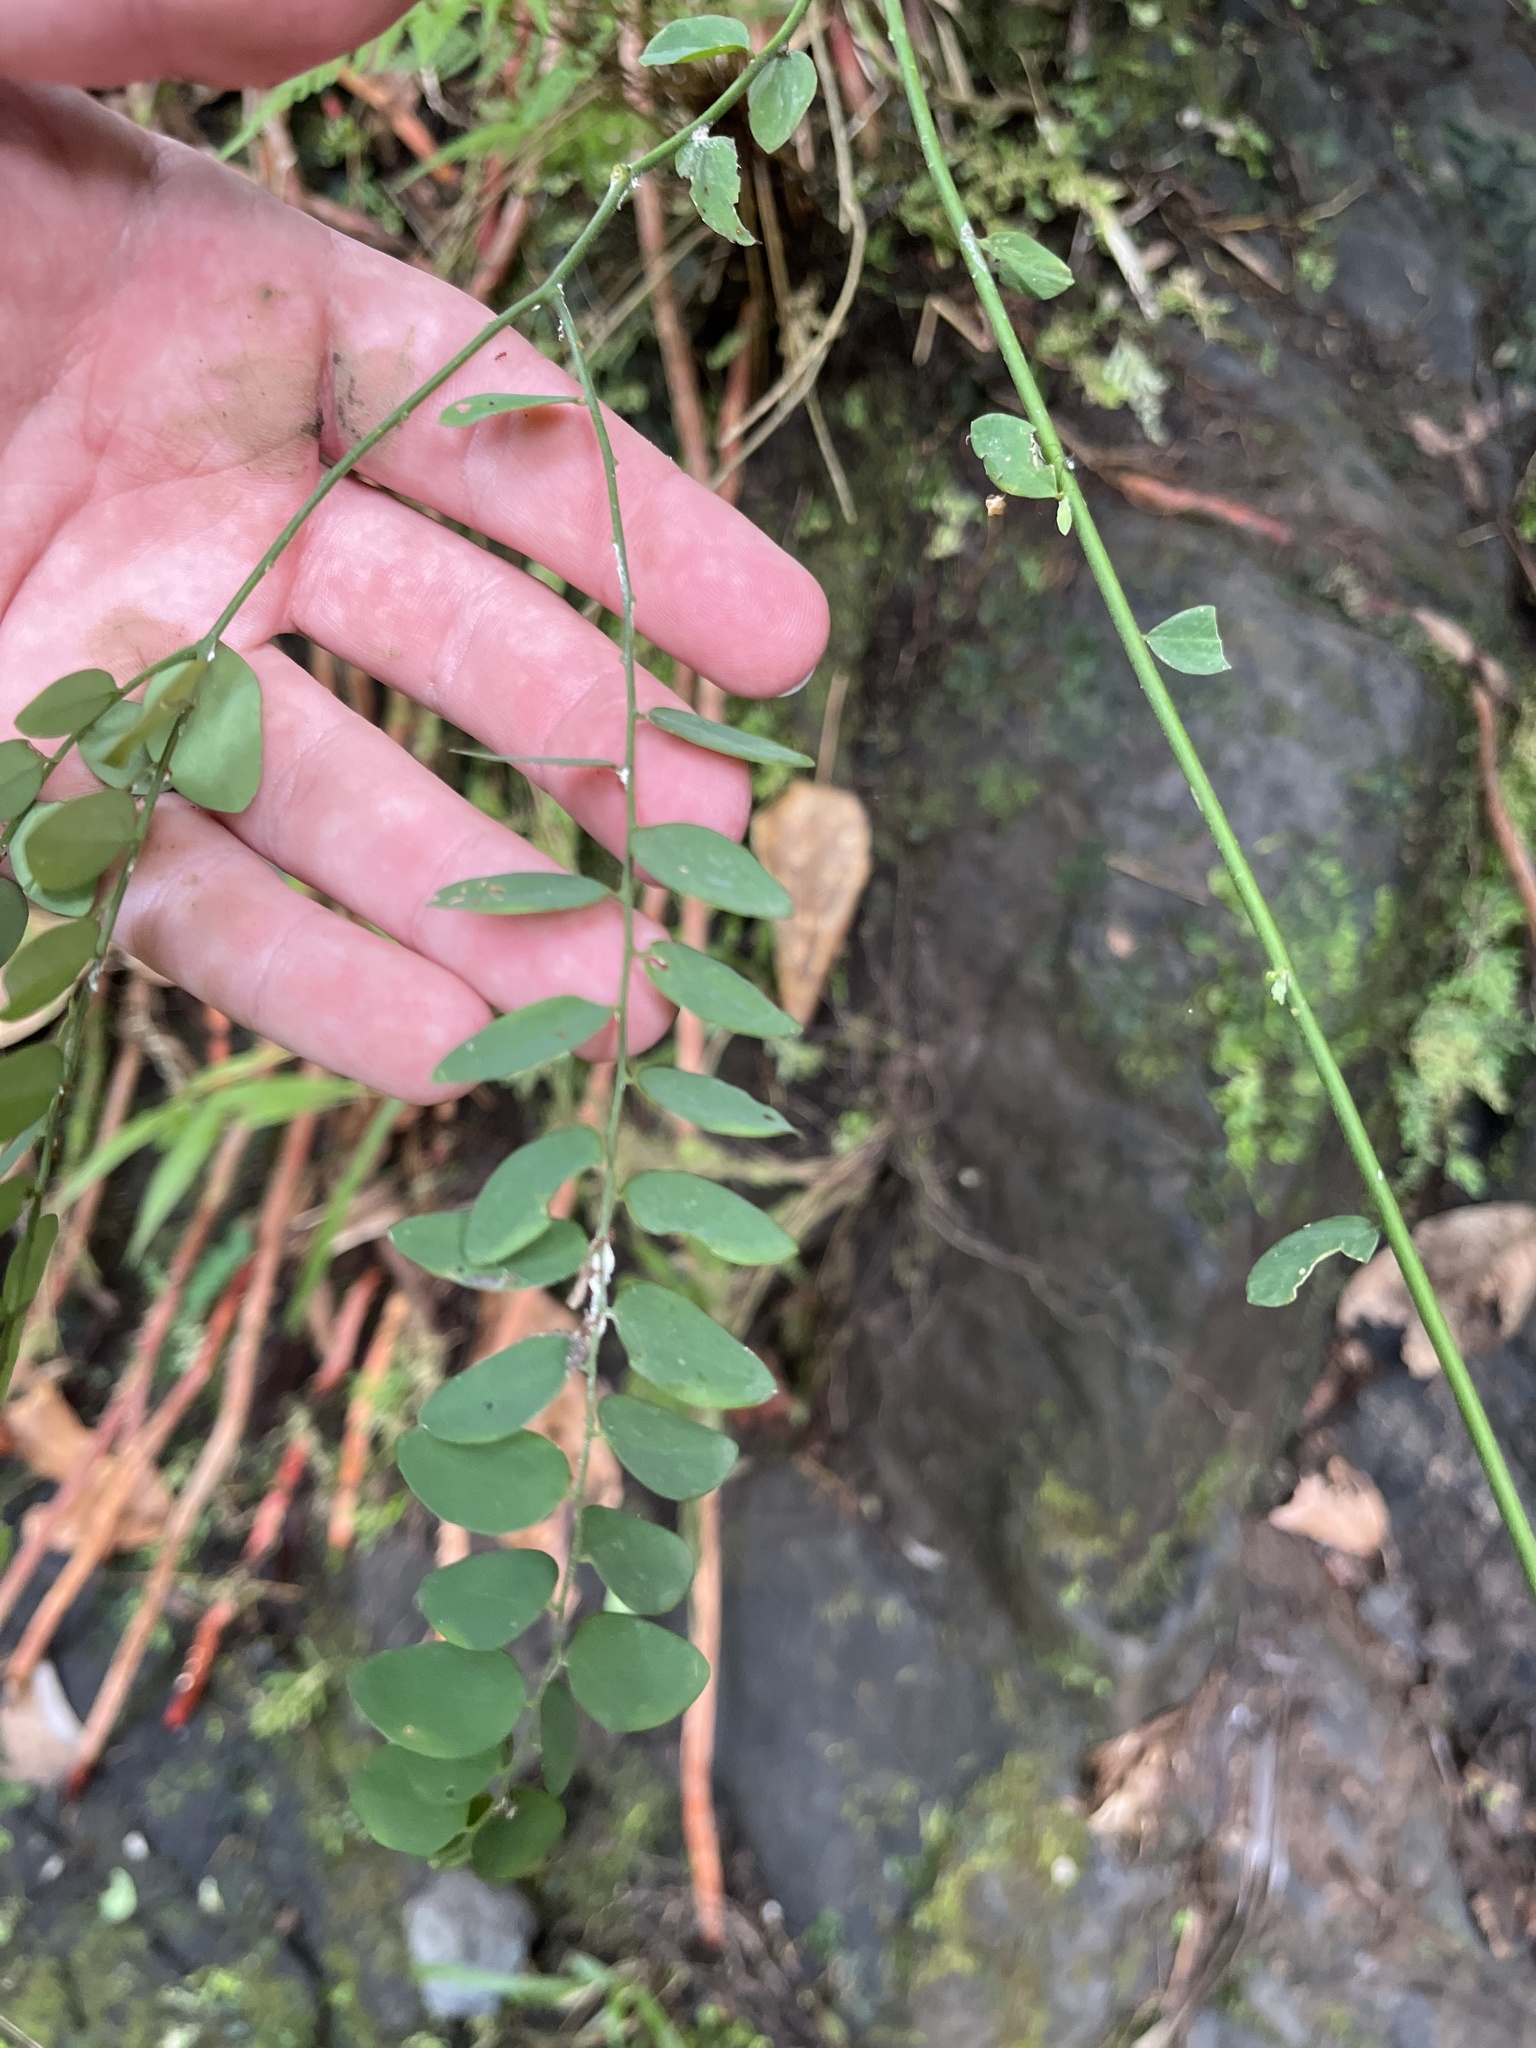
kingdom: Plantae
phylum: Tracheophyta
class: Magnoliopsida
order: Fabales
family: Polygalaceae
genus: Securidaca
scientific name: Securidaca virgata
